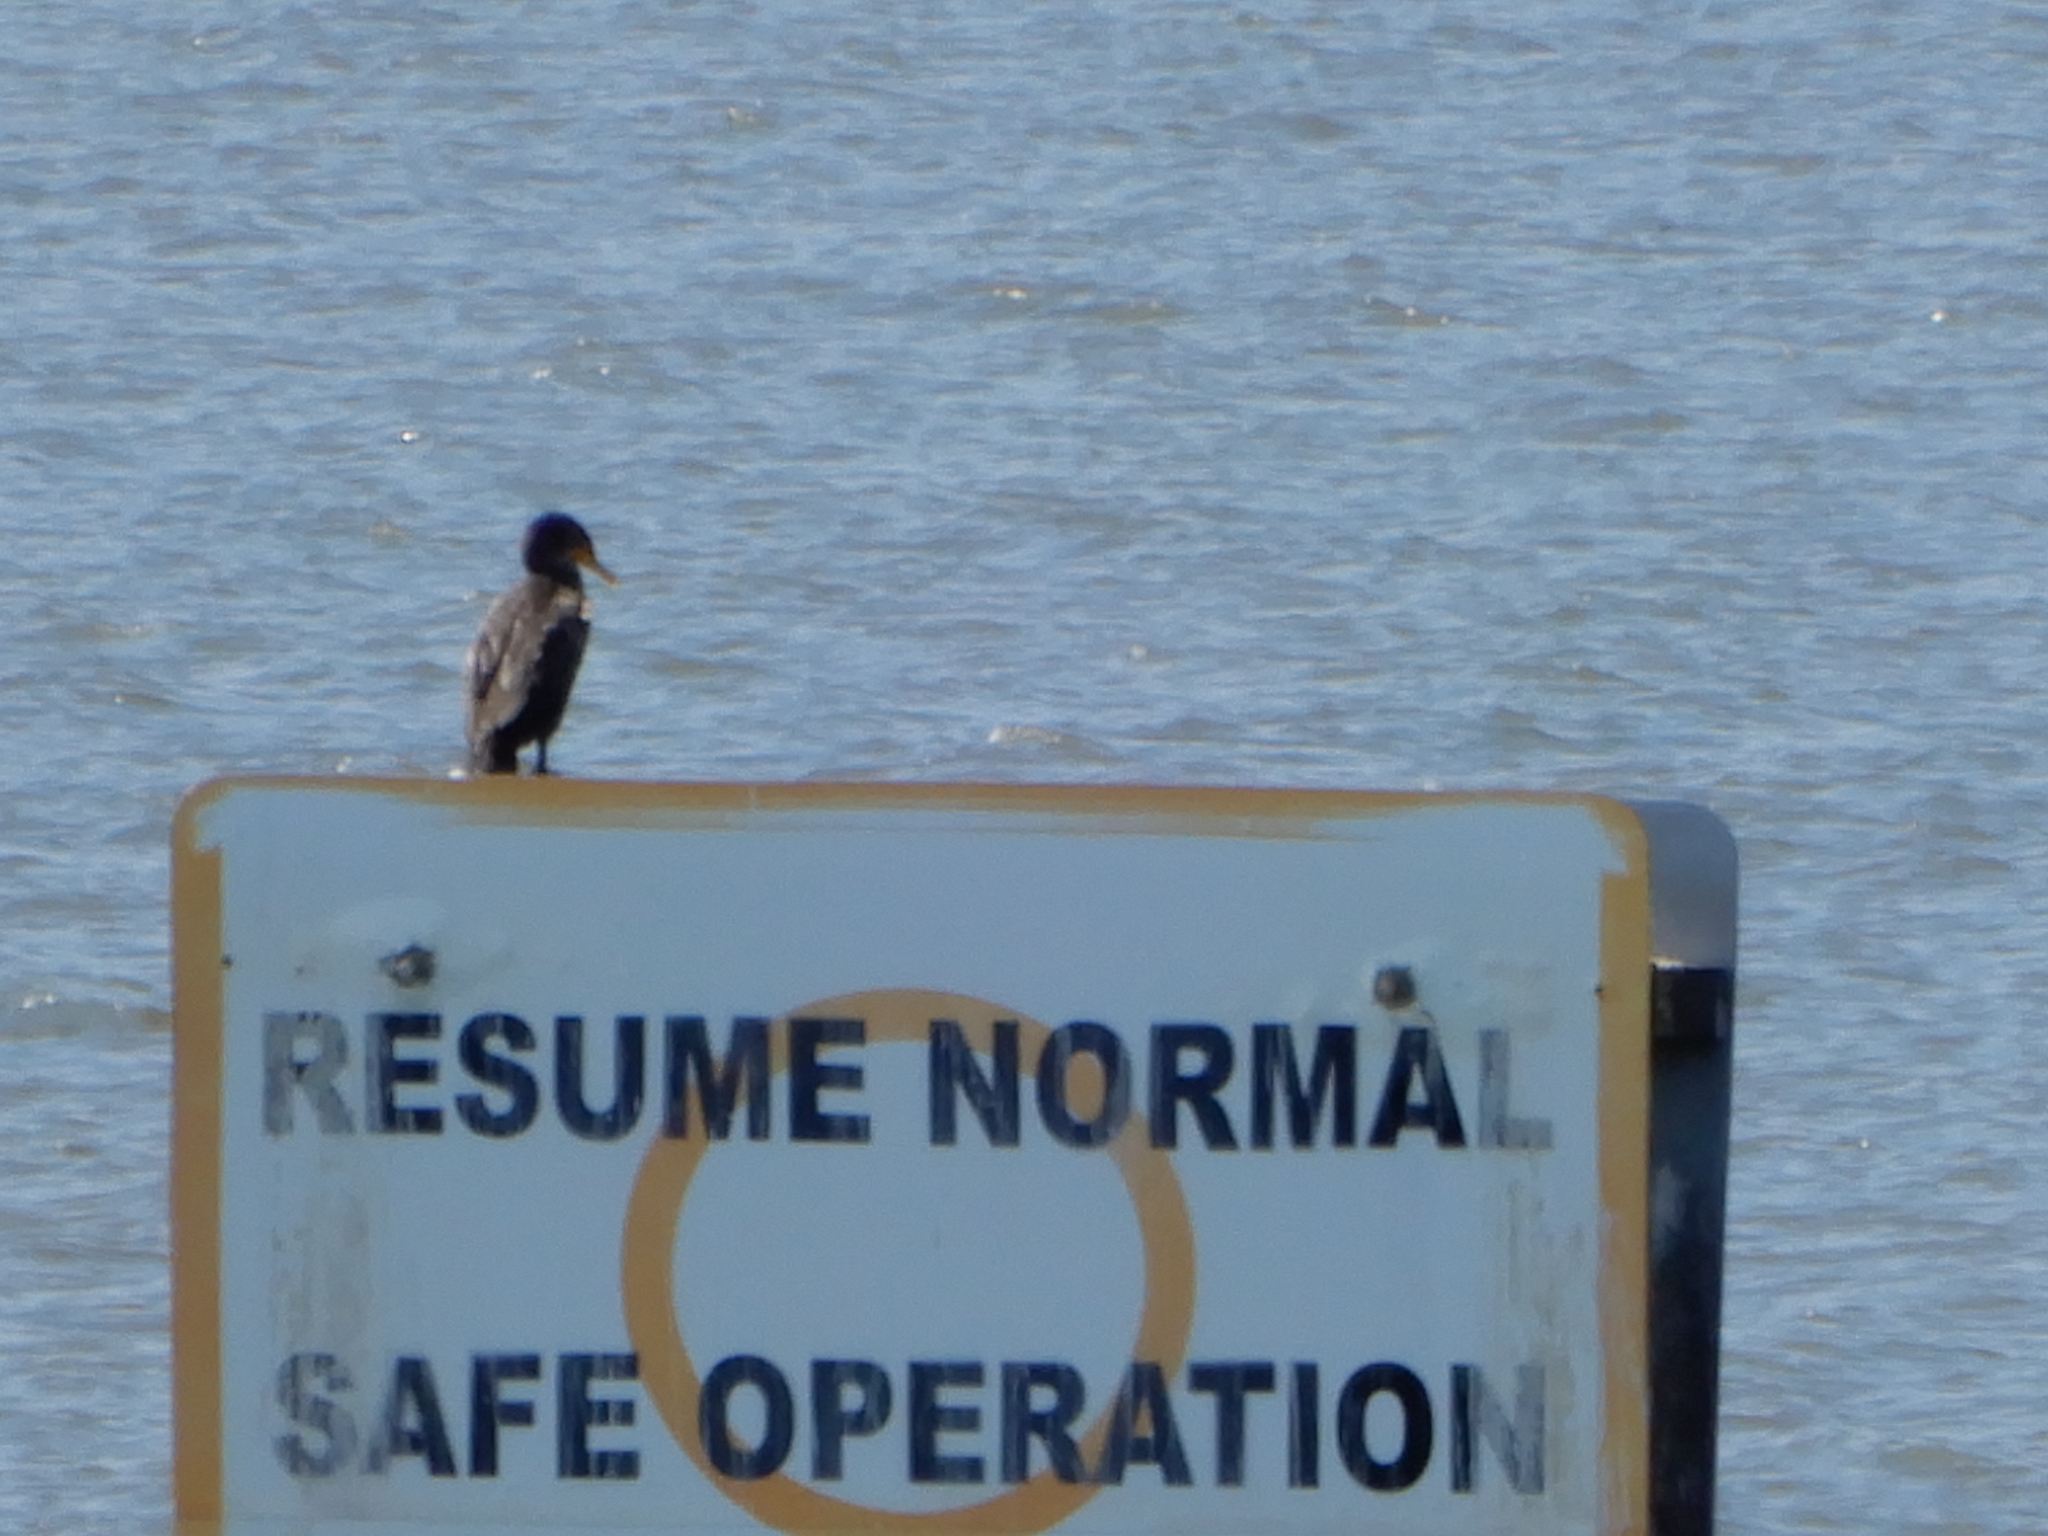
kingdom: Animalia
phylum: Chordata
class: Aves
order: Suliformes
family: Phalacrocoracidae
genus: Phalacrocorax
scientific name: Phalacrocorax auritus
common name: Double-crested cormorant
